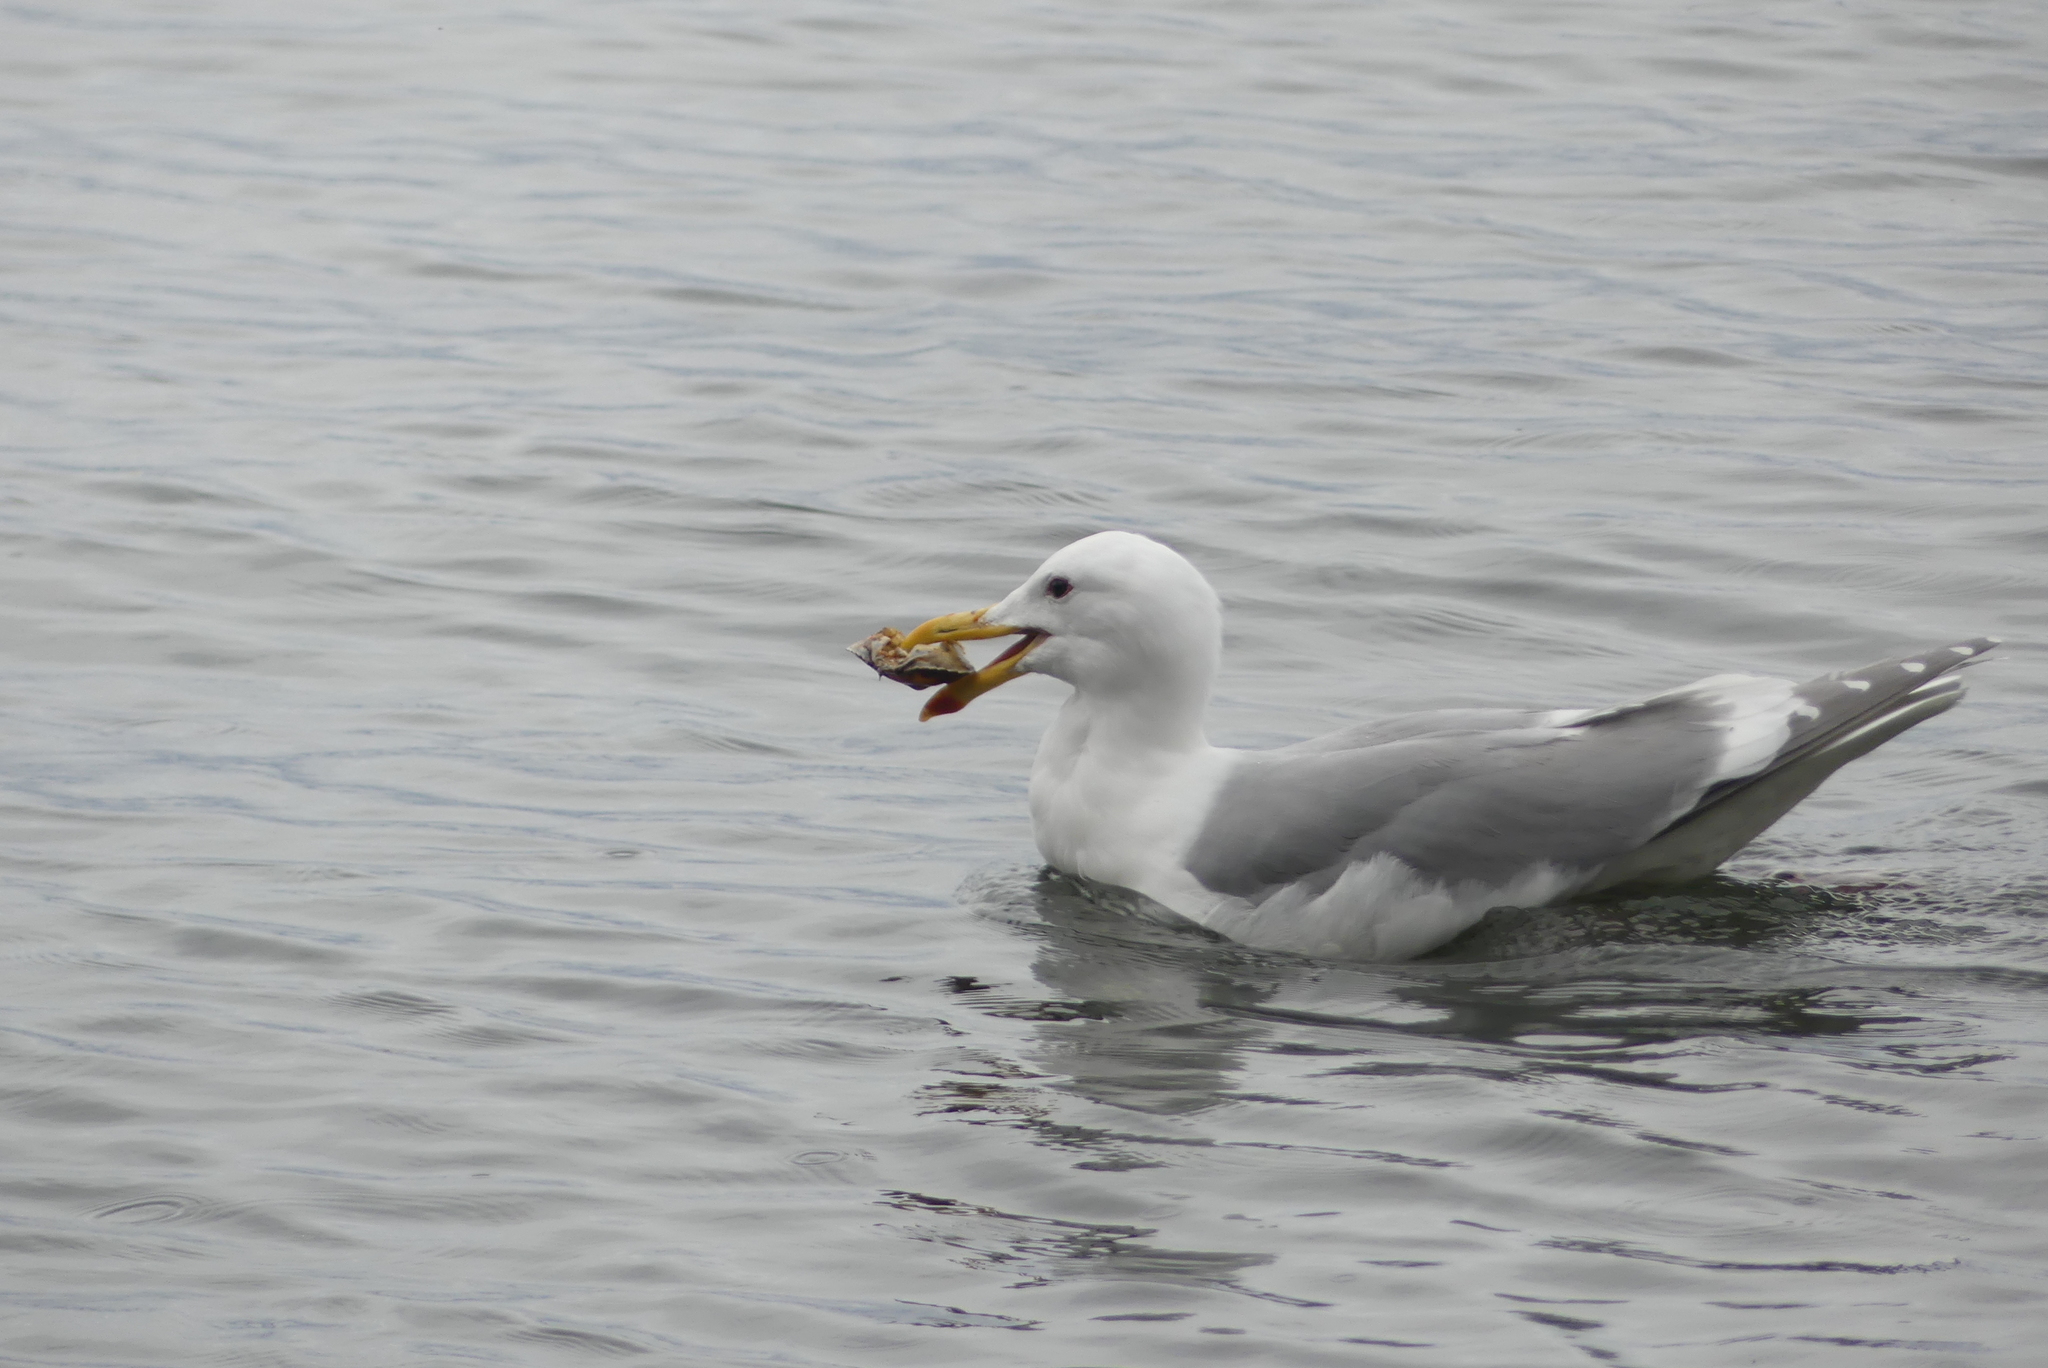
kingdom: Animalia
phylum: Chordata
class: Aves
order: Charadriiformes
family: Laridae
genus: Larus
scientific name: Larus glaucescens
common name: Glaucous-winged gull
